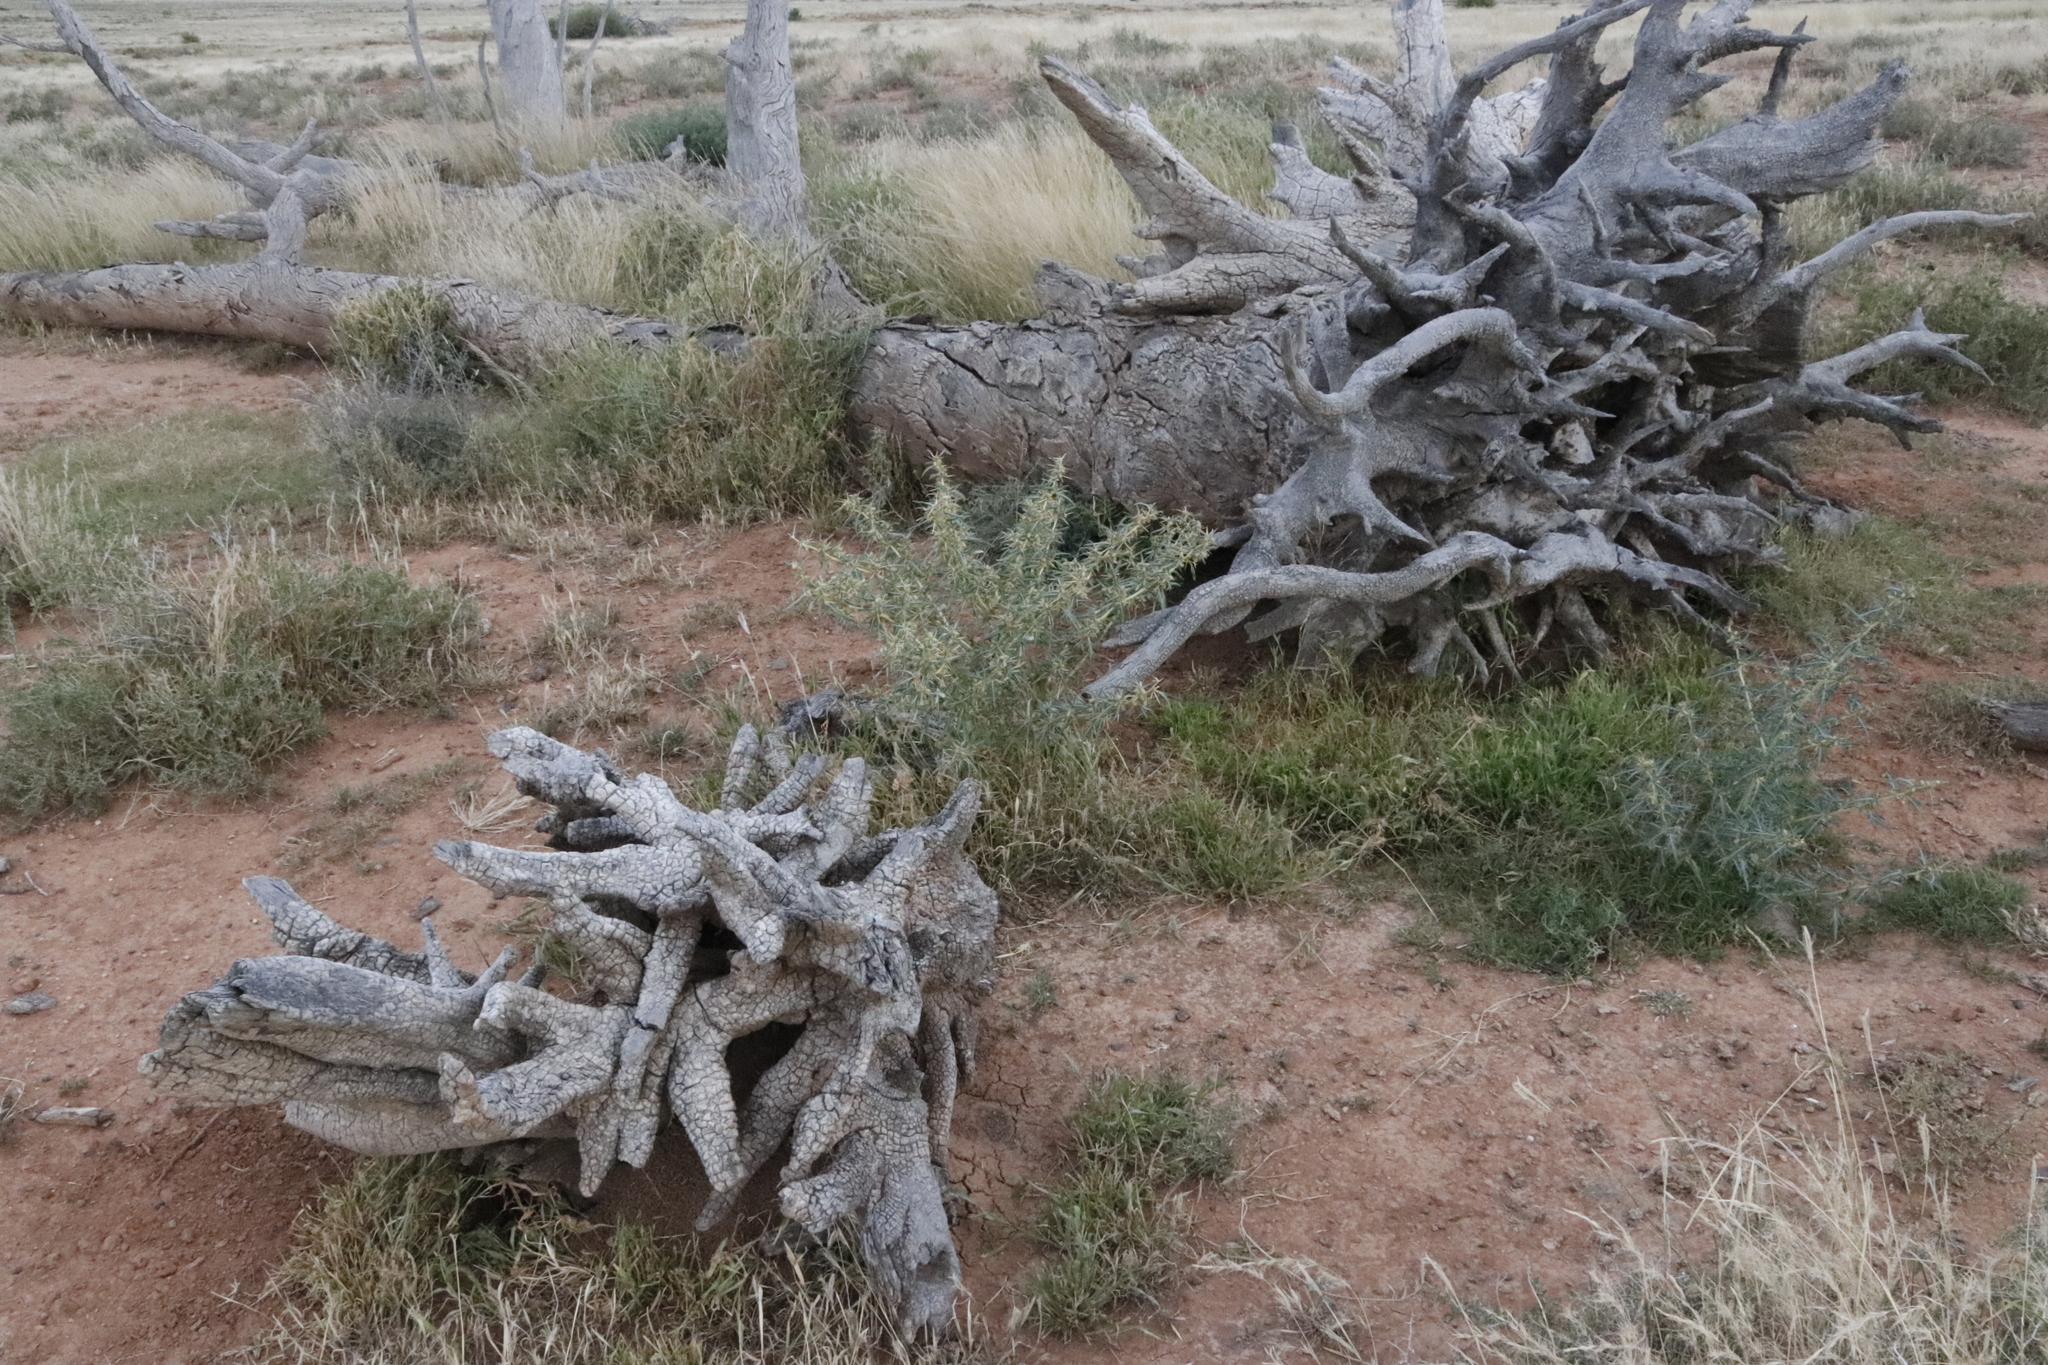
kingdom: Plantae
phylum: Tracheophyta
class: Magnoliopsida
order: Asterales
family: Asteraceae
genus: Xanthium
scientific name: Xanthium spinosum
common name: Spiny cocklebur
